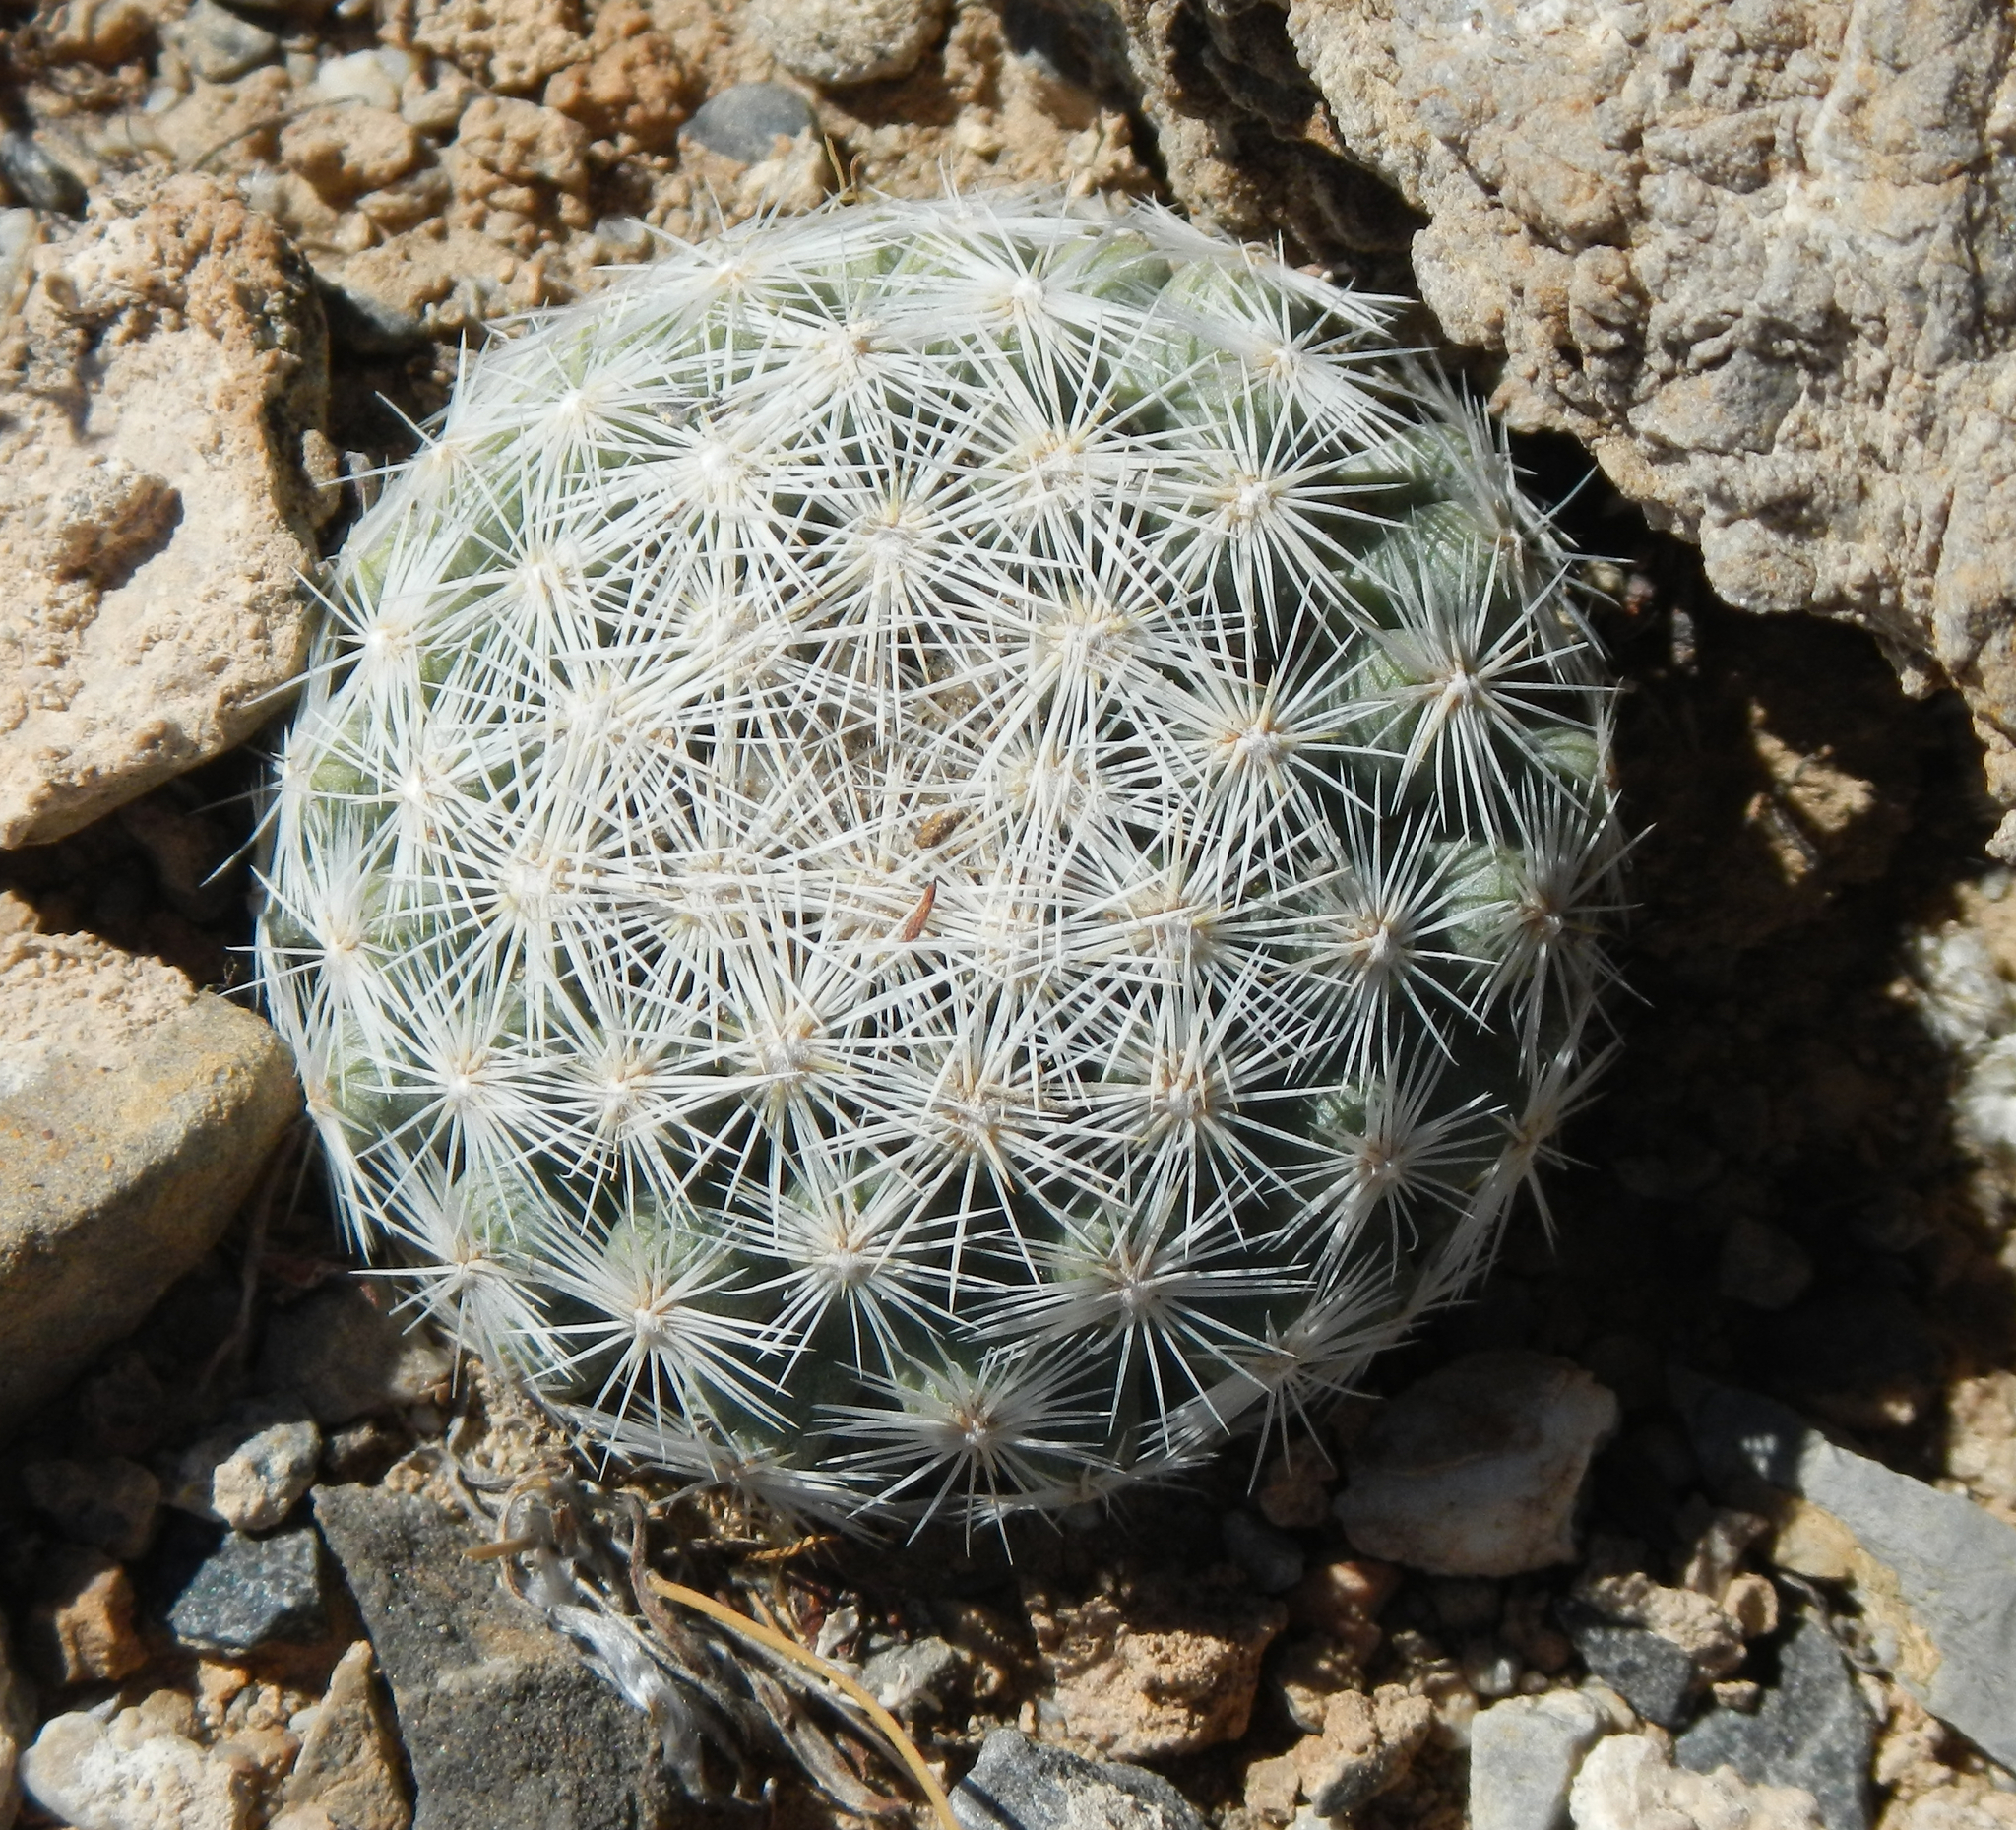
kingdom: Plantae
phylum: Tracheophyta
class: Magnoliopsida
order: Caryophyllales
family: Cactaceae
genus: Pelecyphora
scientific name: Pelecyphora dasyacantha
